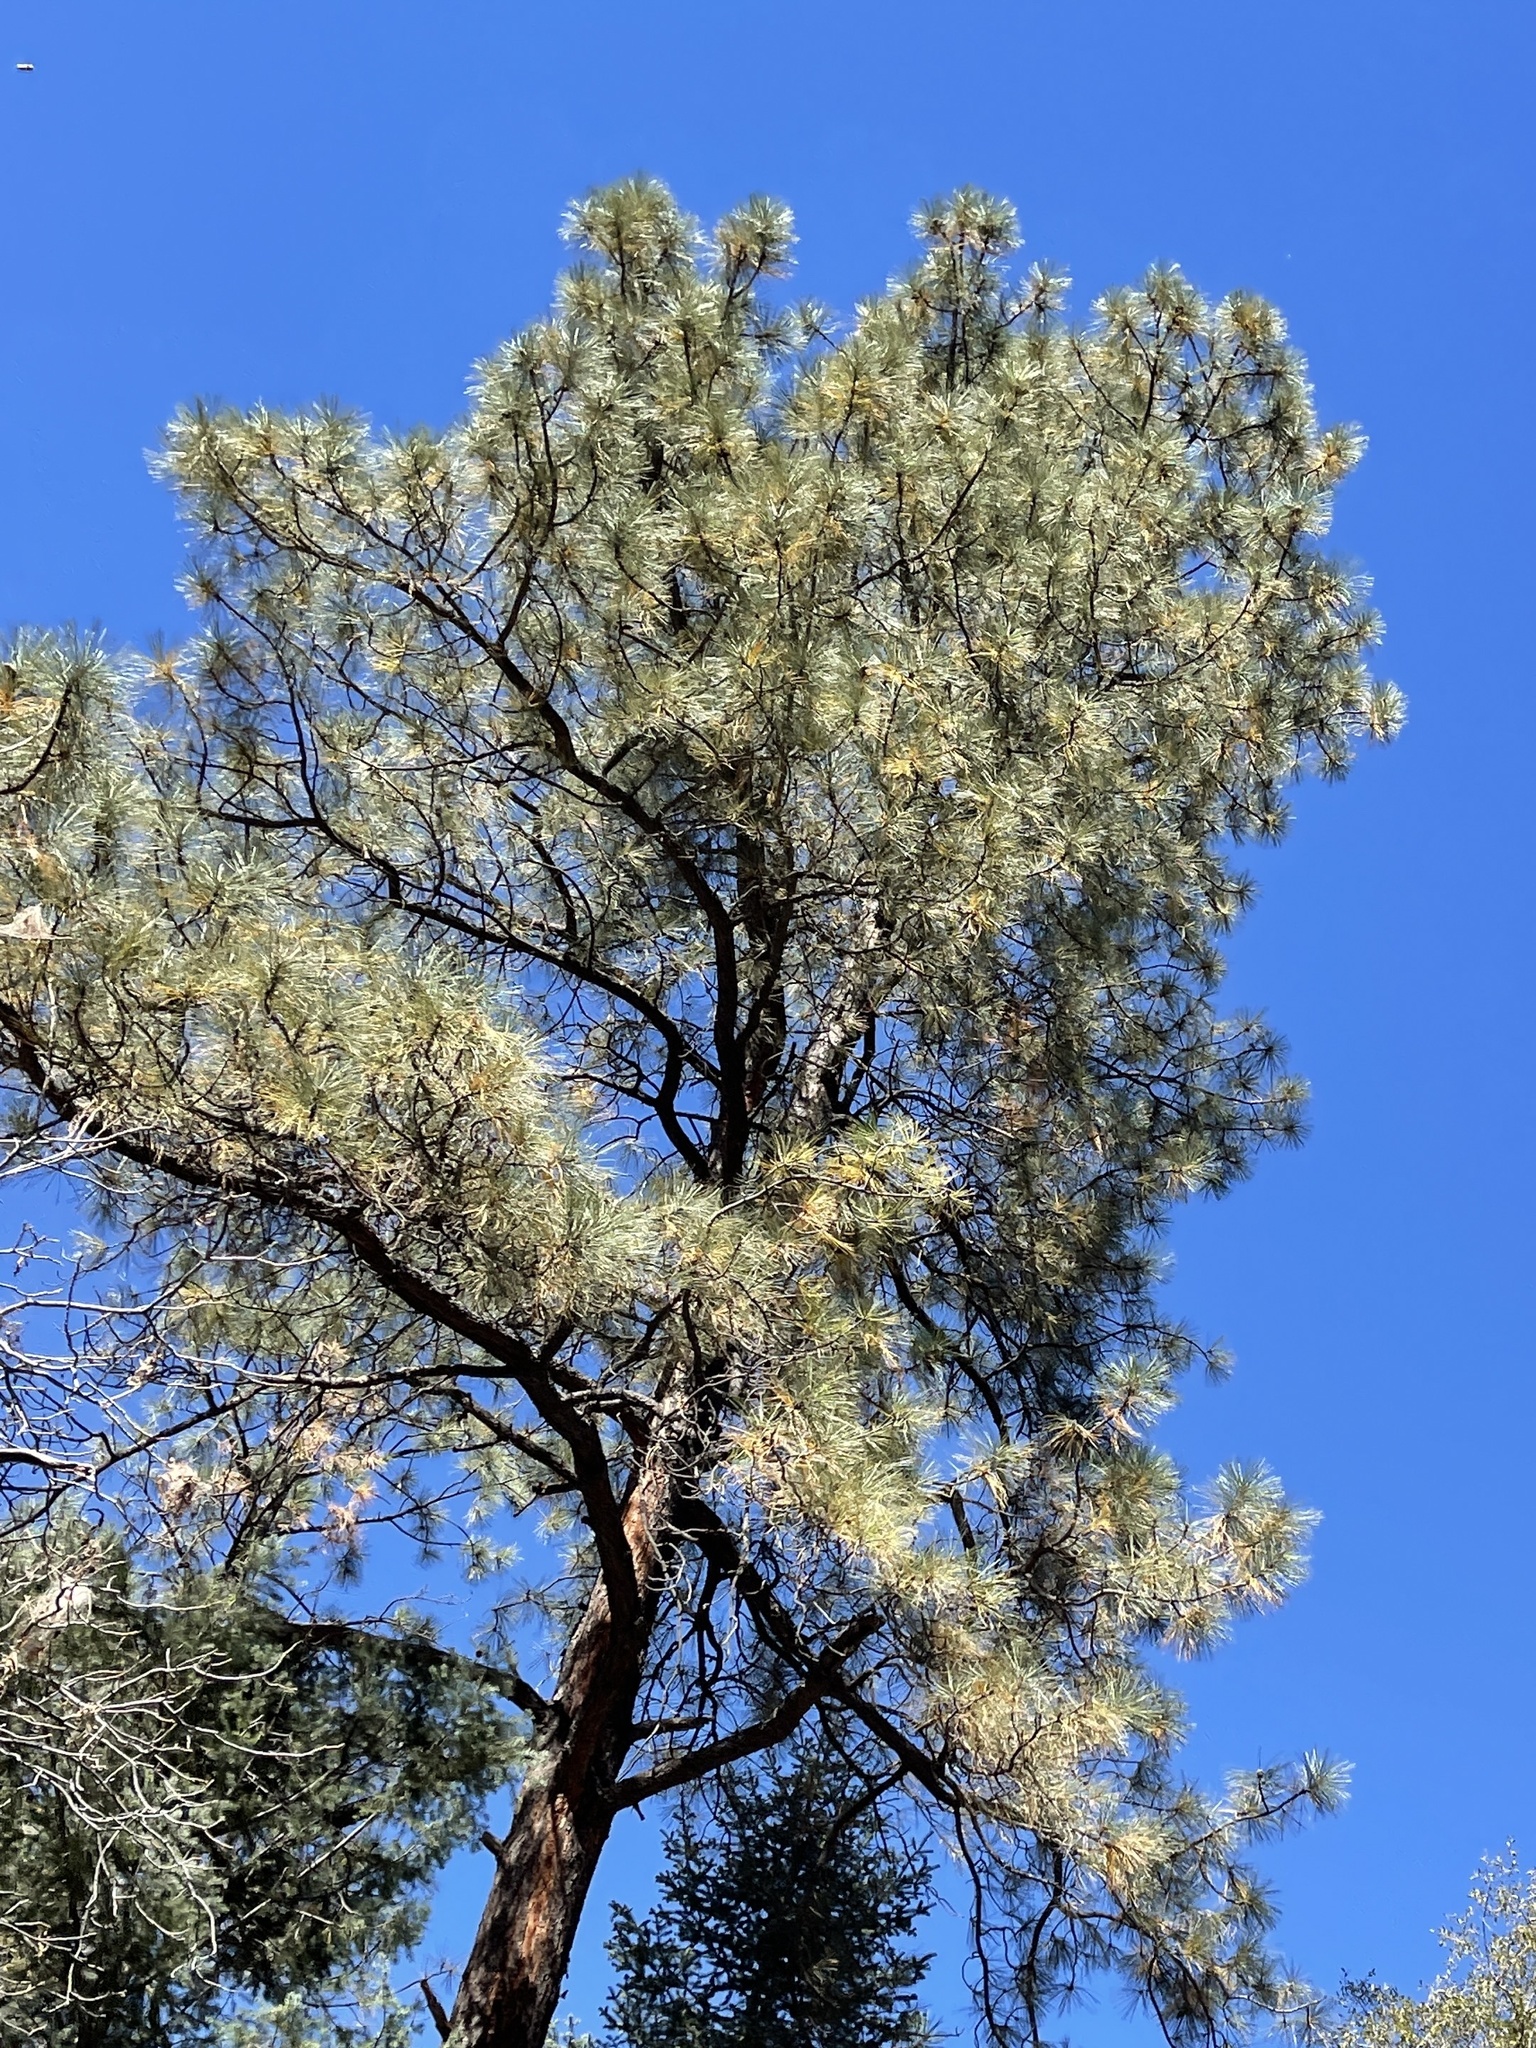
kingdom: Plantae
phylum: Tracheophyta
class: Pinopsida
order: Pinales
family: Pinaceae
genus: Pinus
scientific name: Pinus ponderosa
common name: Western yellow-pine
